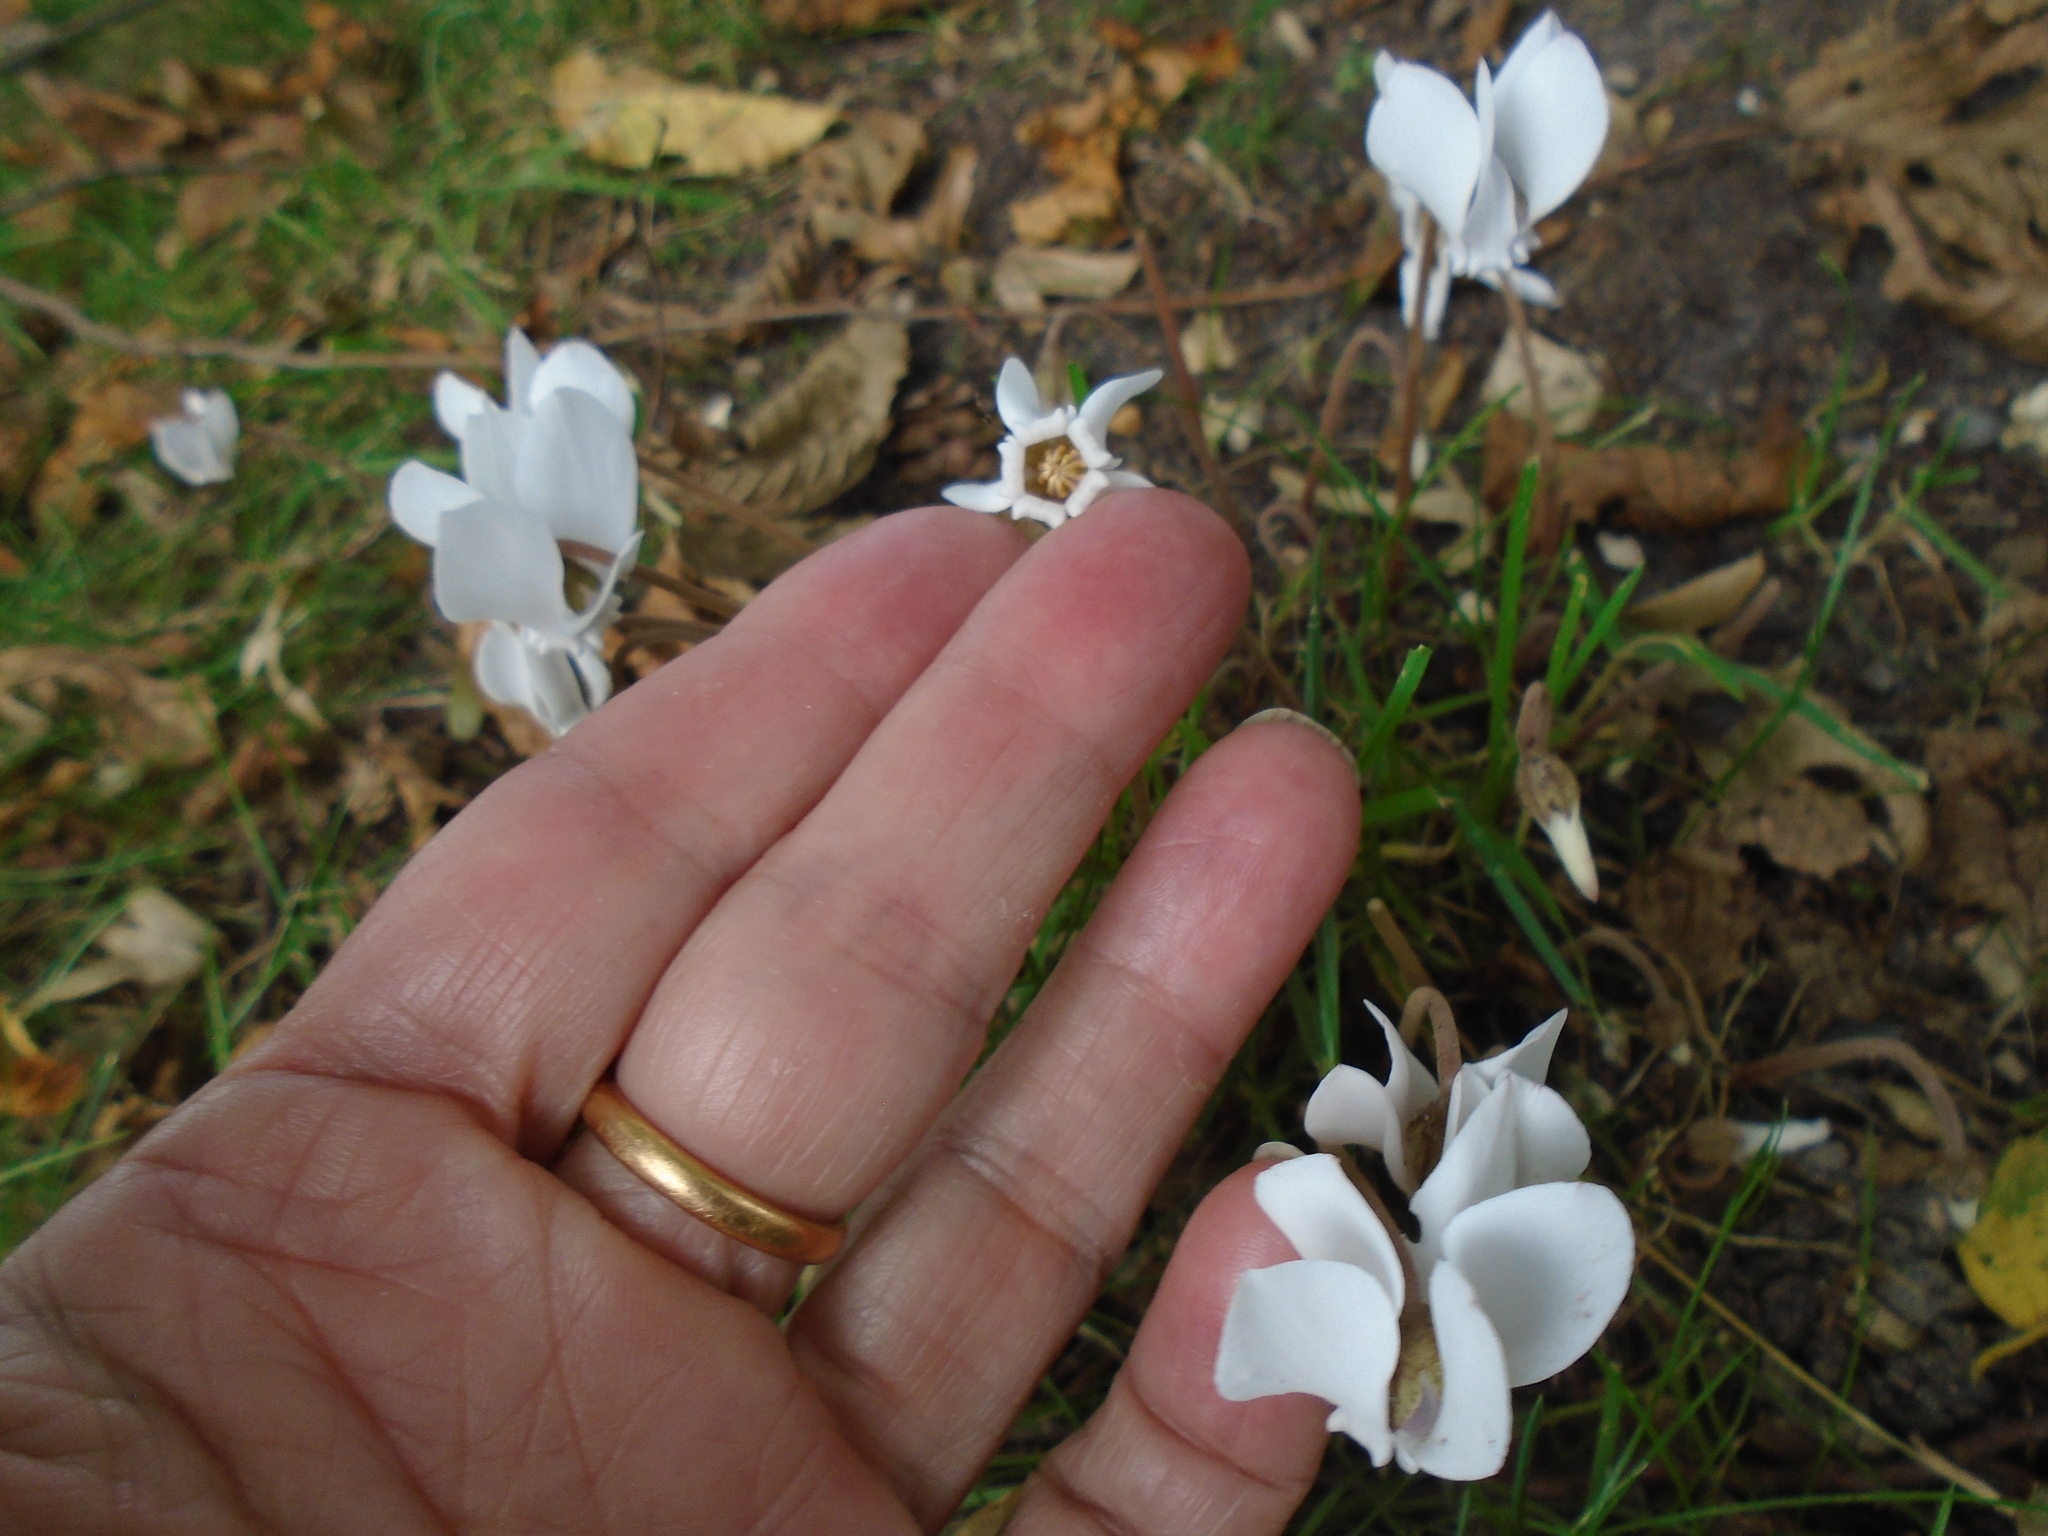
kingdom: Plantae
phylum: Tracheophyta
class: Magnoliopsida
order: Ericales
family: Primulaceae
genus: Cyclamen
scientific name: Cyclamen hederifolium
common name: Sowbread
